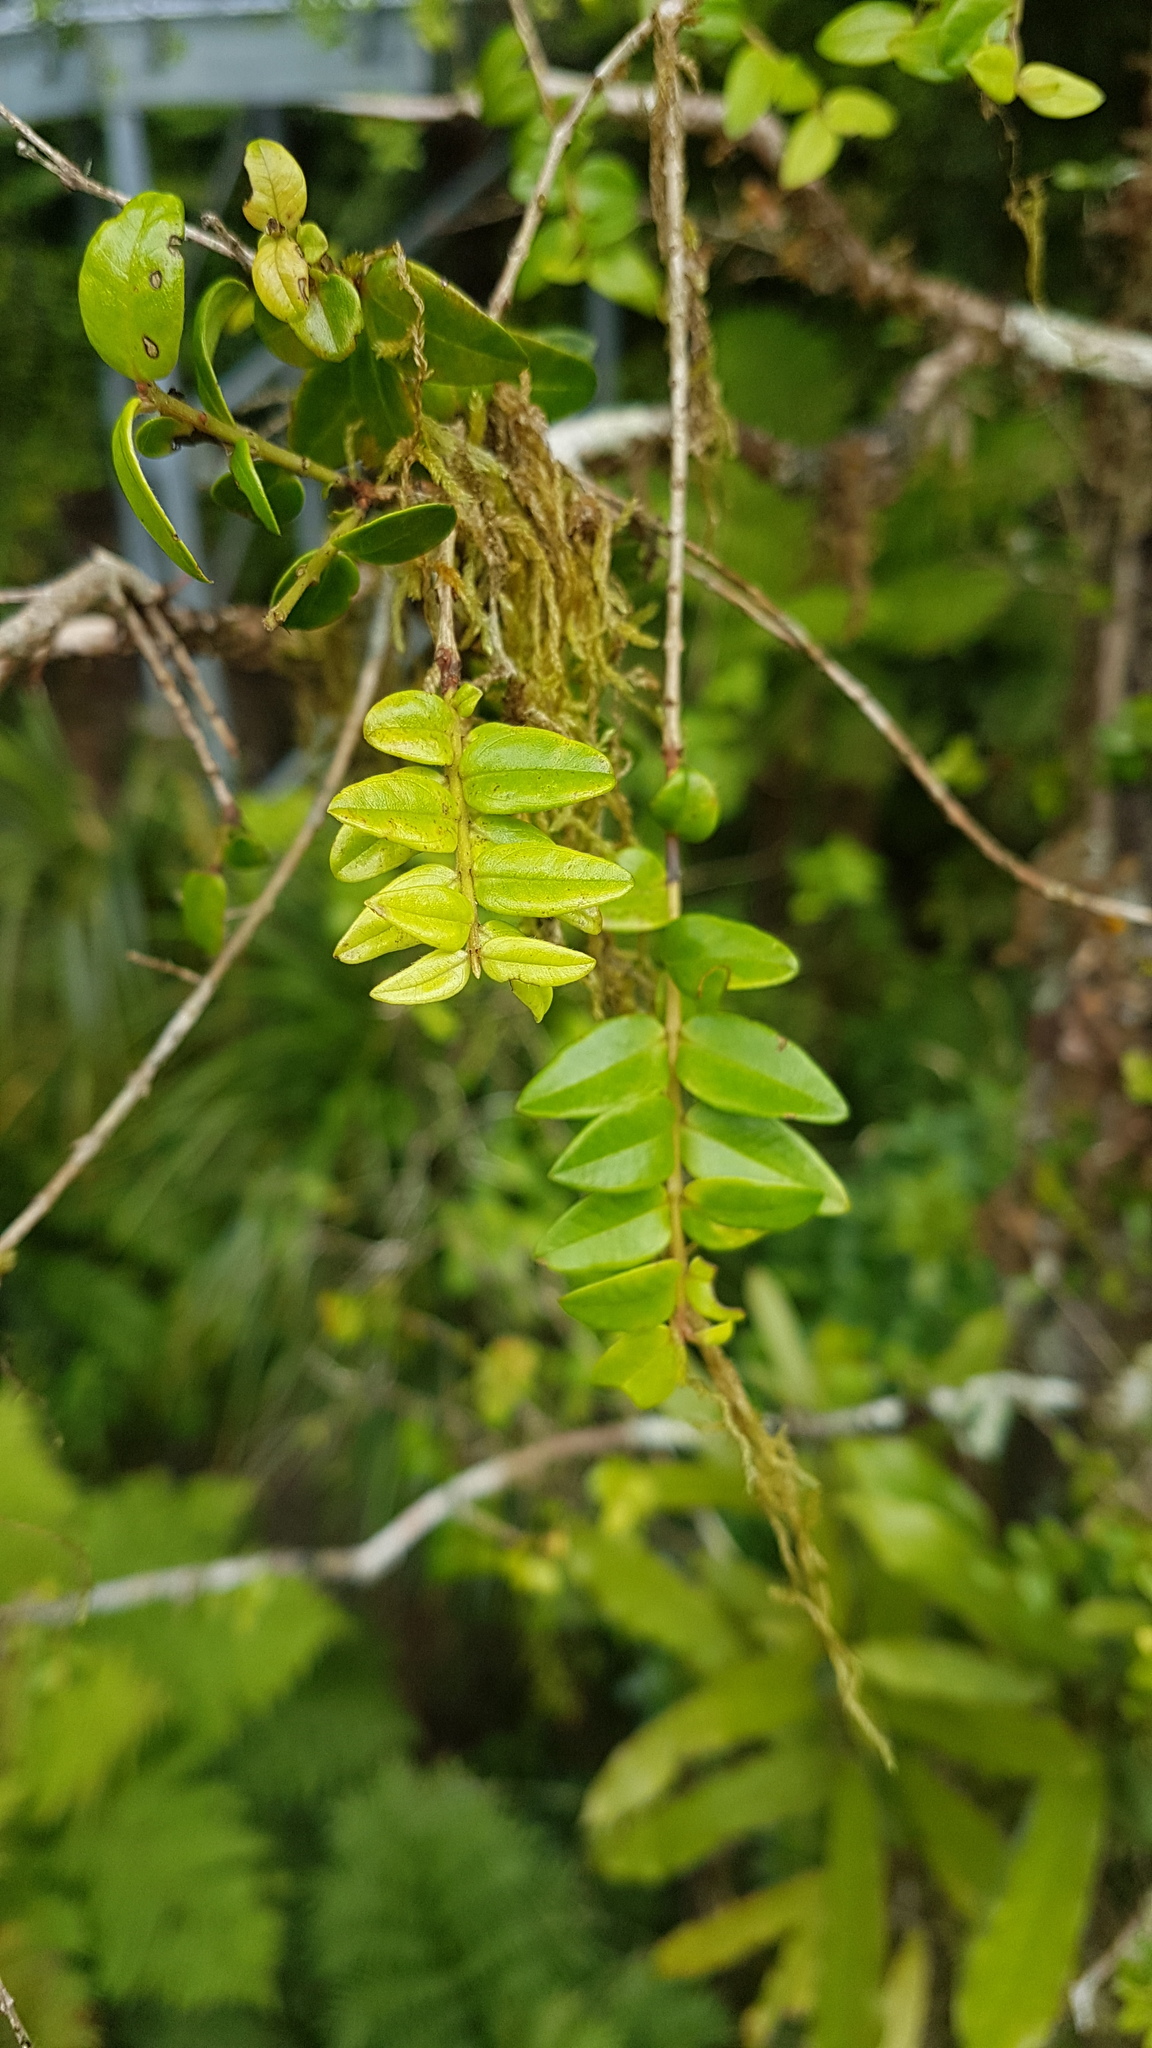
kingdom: Plantae
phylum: Tracheophyta
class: Magnoliopsida
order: Myrtales
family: Myrtaceae
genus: Metrosideros
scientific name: Metrosideros diffusa
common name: Small ratavine
